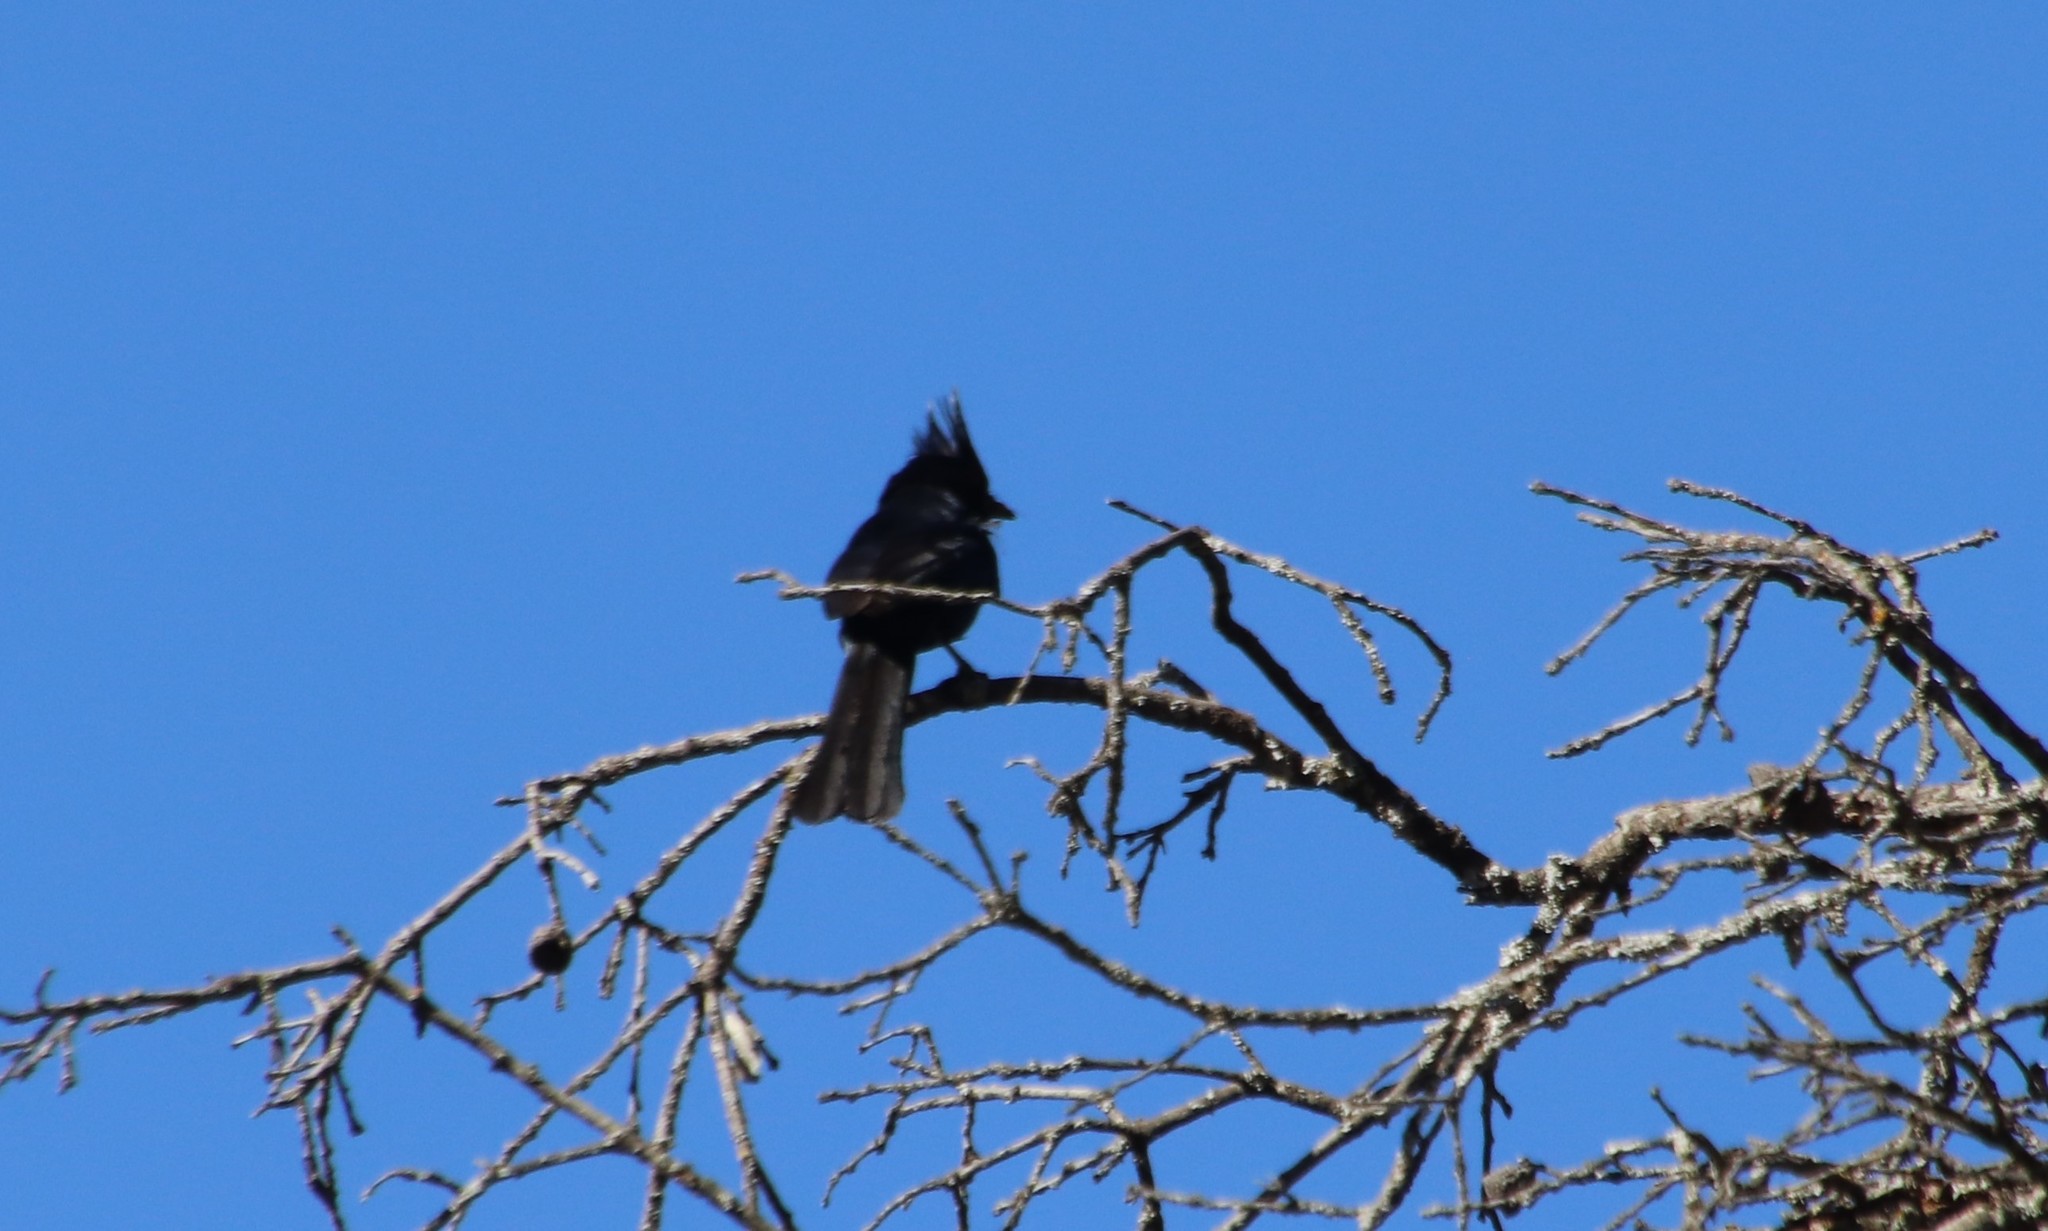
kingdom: Animalia
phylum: Chordata
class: Aves
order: Passeriformes
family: Ptilogonatidae
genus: Phainopepla
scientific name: Phainopepla nitens
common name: Phainopepla
